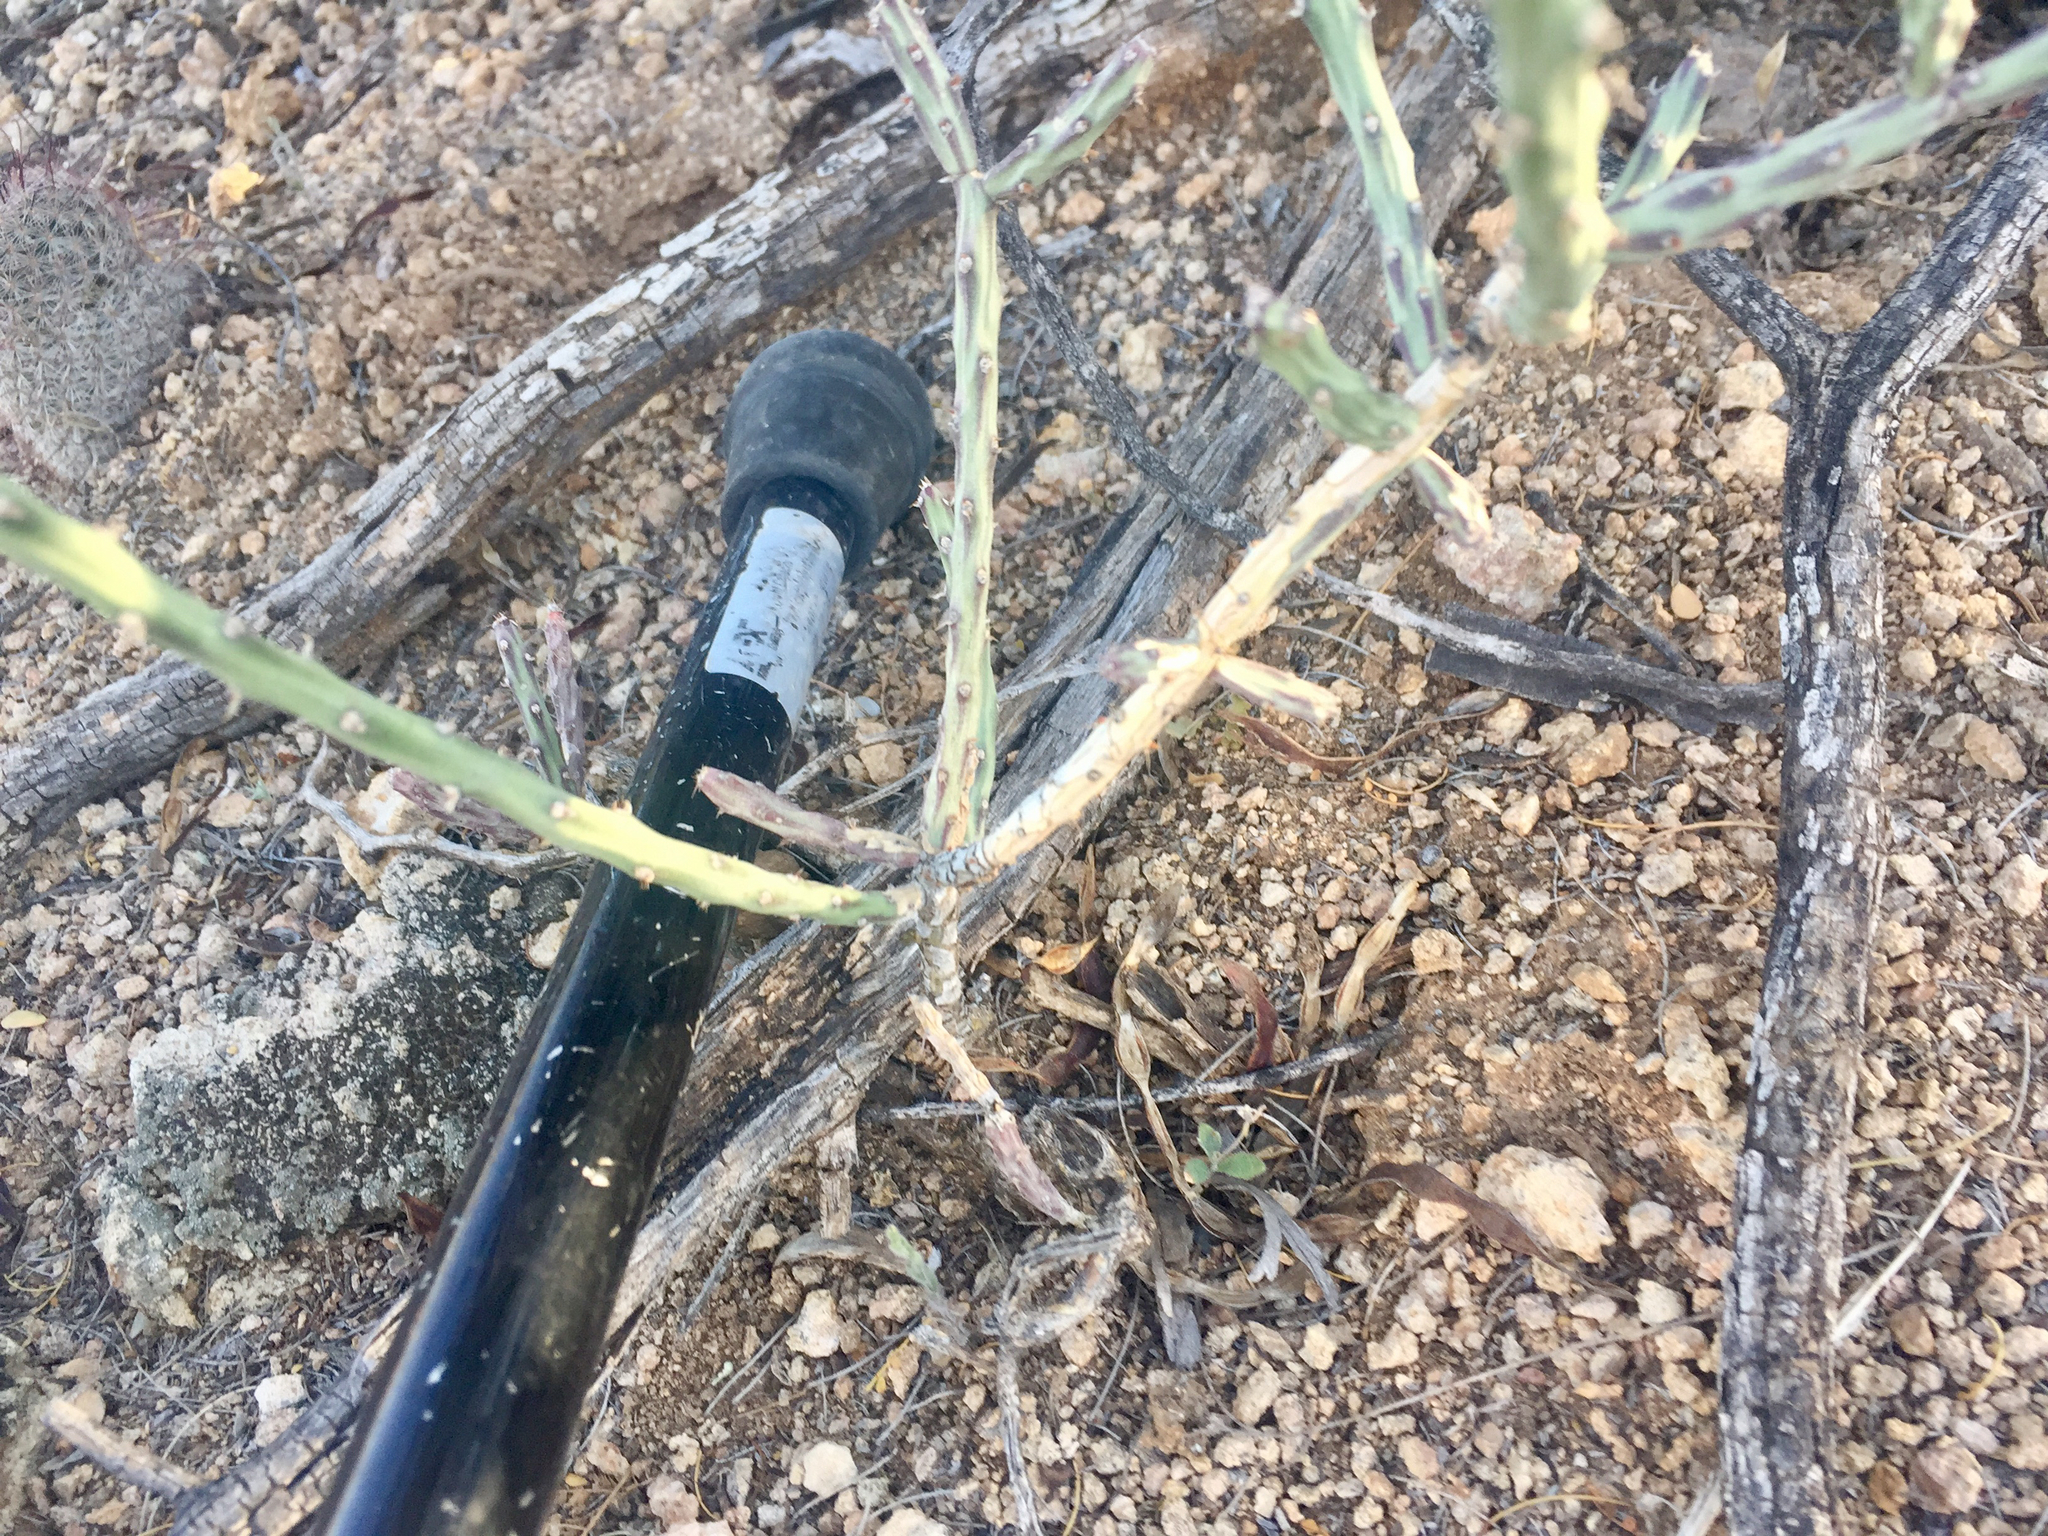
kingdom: Plantae
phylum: Tracheophyta
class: Magnoliopsida
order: Caryophyllales
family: Cactaceae
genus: Cylindropuntia
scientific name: Cylindropuntia leptocaulis
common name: Christmas cactus
